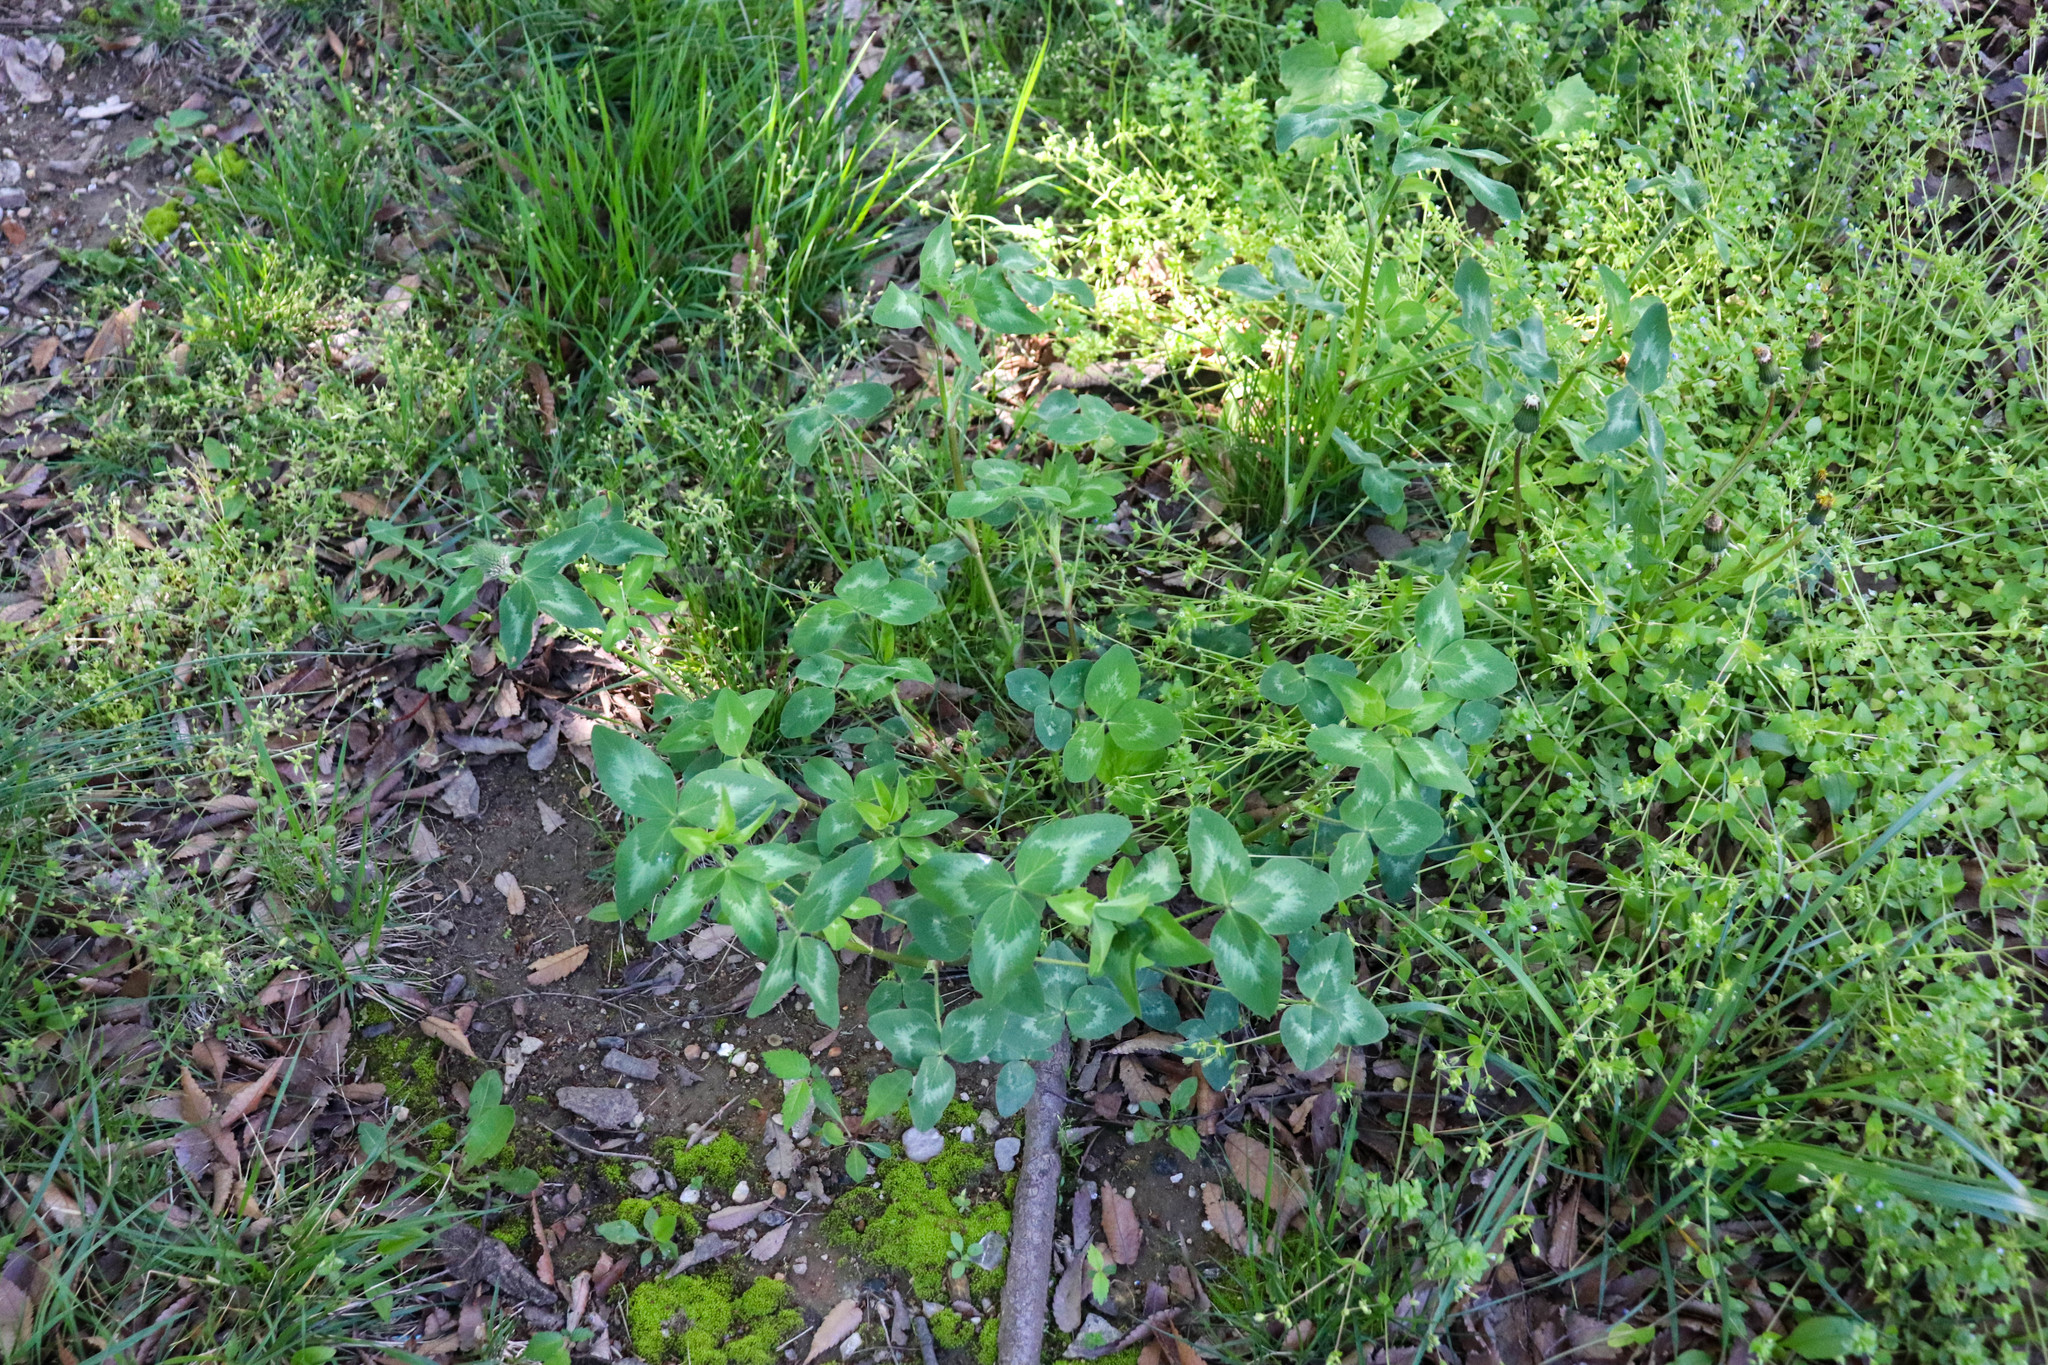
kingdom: Plantae
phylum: Tracheophyta
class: Magnoliopsida
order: Fabales
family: Fabaceae
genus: Trifolium
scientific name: Trifolium pratense
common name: Red clover
